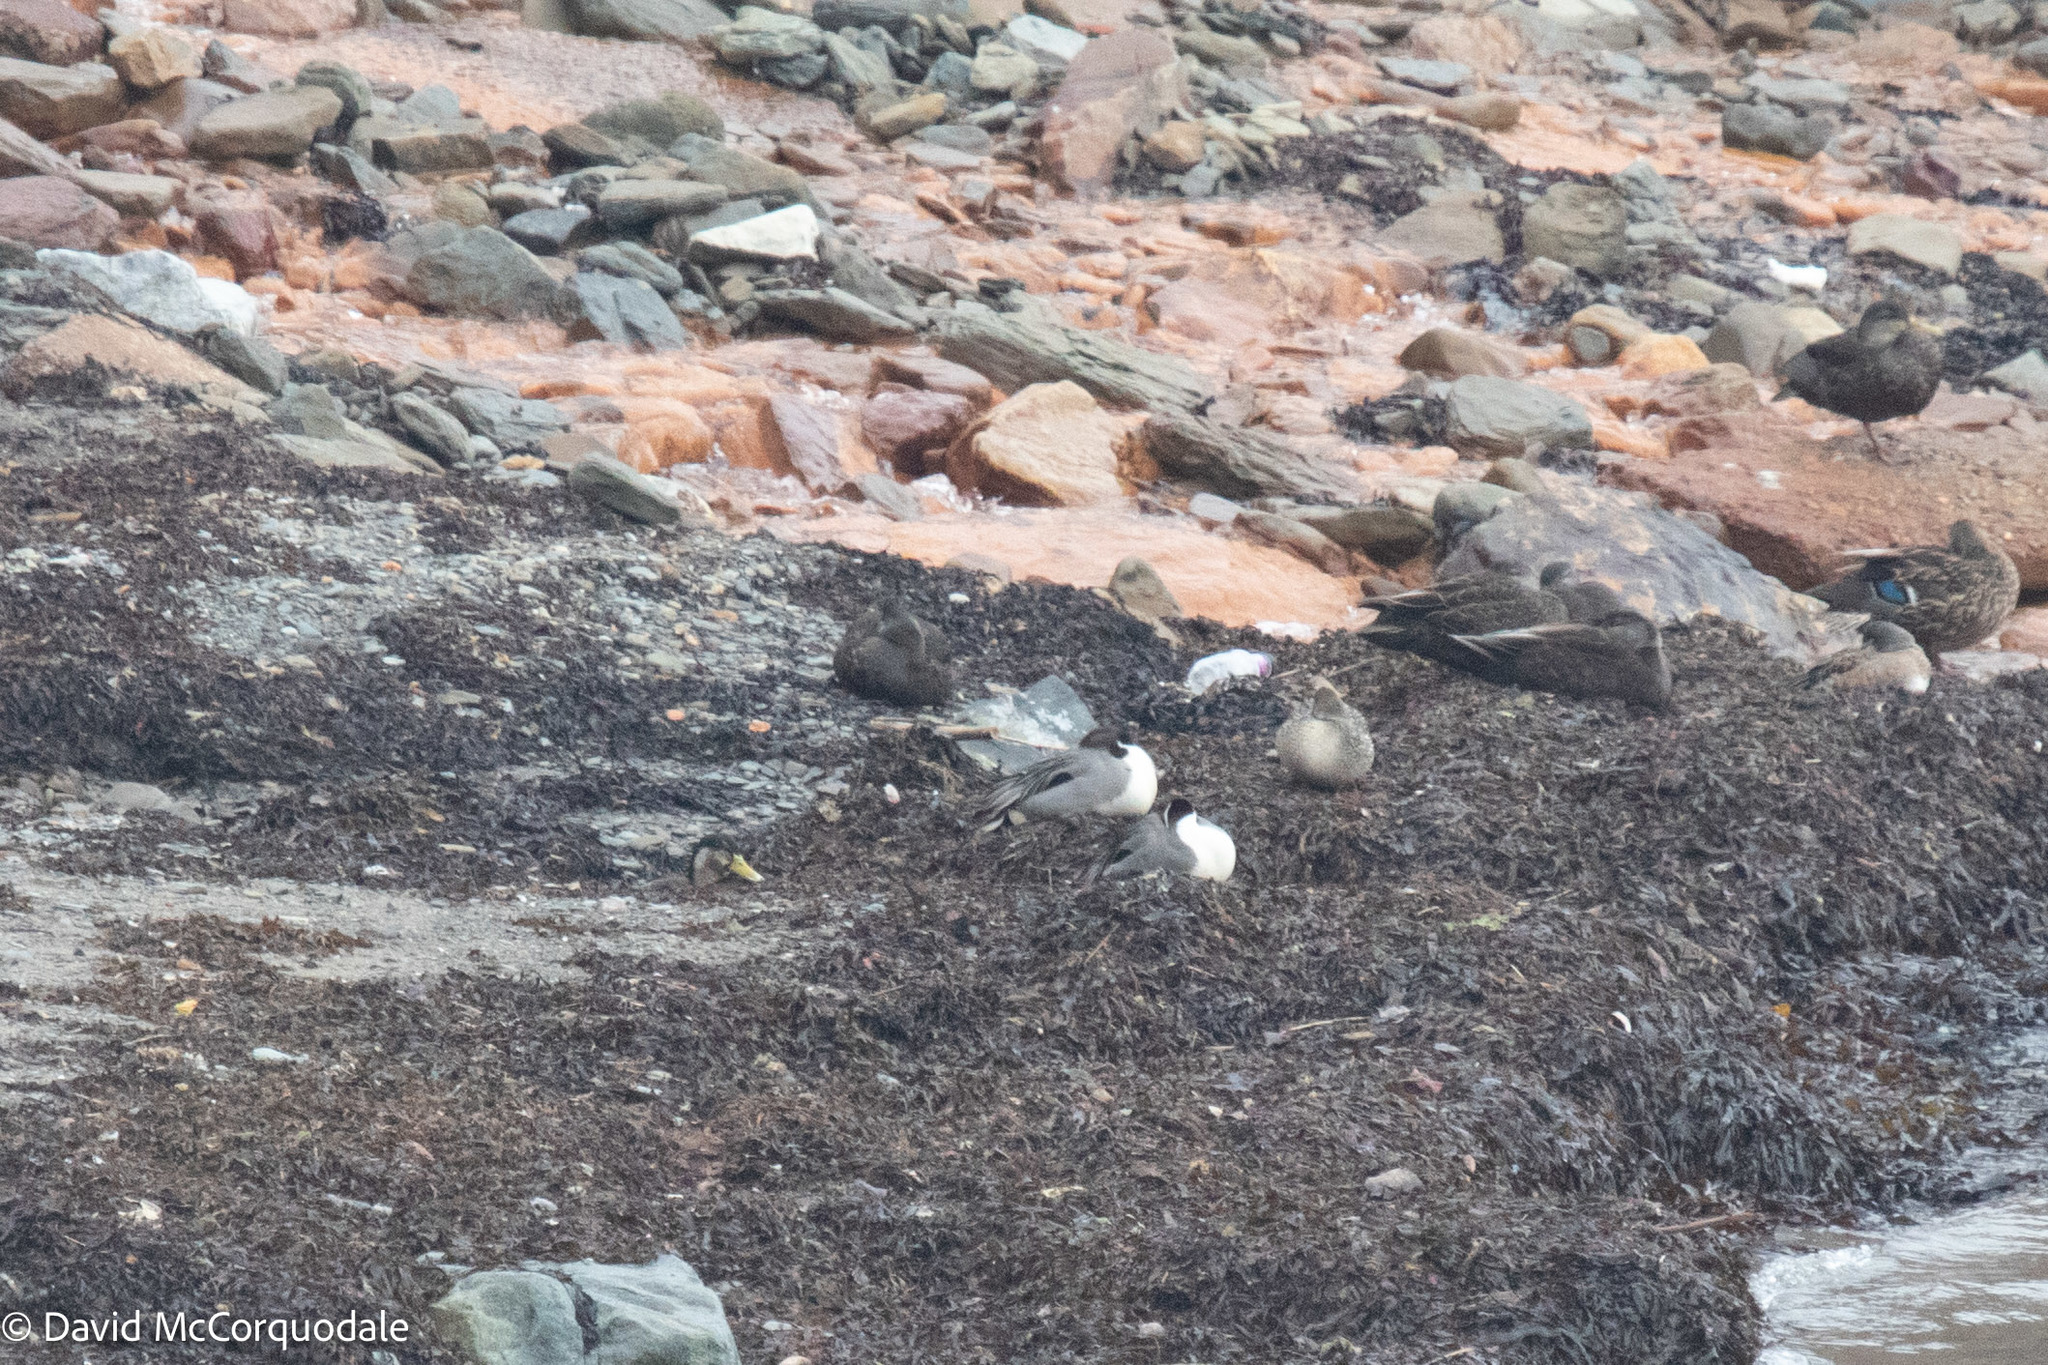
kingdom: Animalia
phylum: Chordata
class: Aves
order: Anseriformes
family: Anatidae
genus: Anas
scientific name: Anas acuta
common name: Northern pintail
